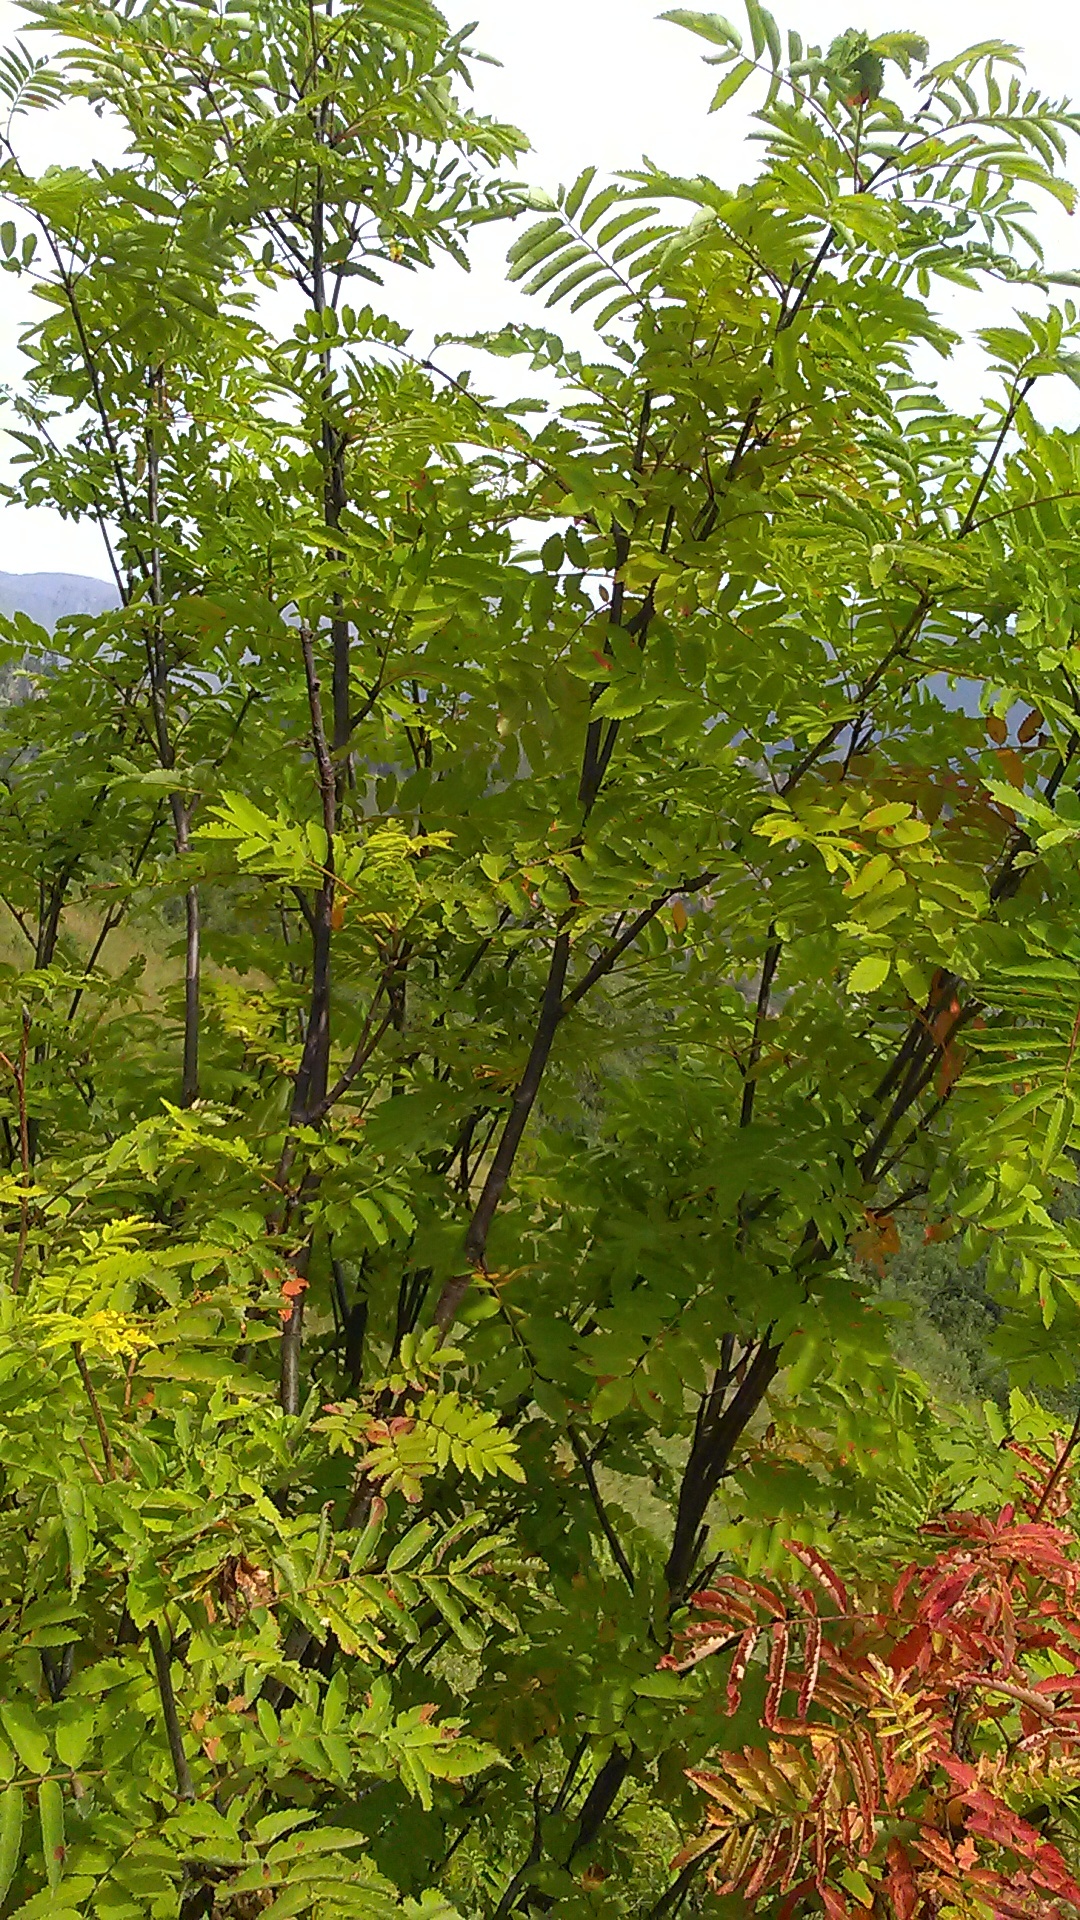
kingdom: Plantae
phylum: Tracheophyta
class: Magnoliopsida
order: Rosales
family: Rosaceae
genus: Sorbus
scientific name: Sorbus aucuparia
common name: Rowan
